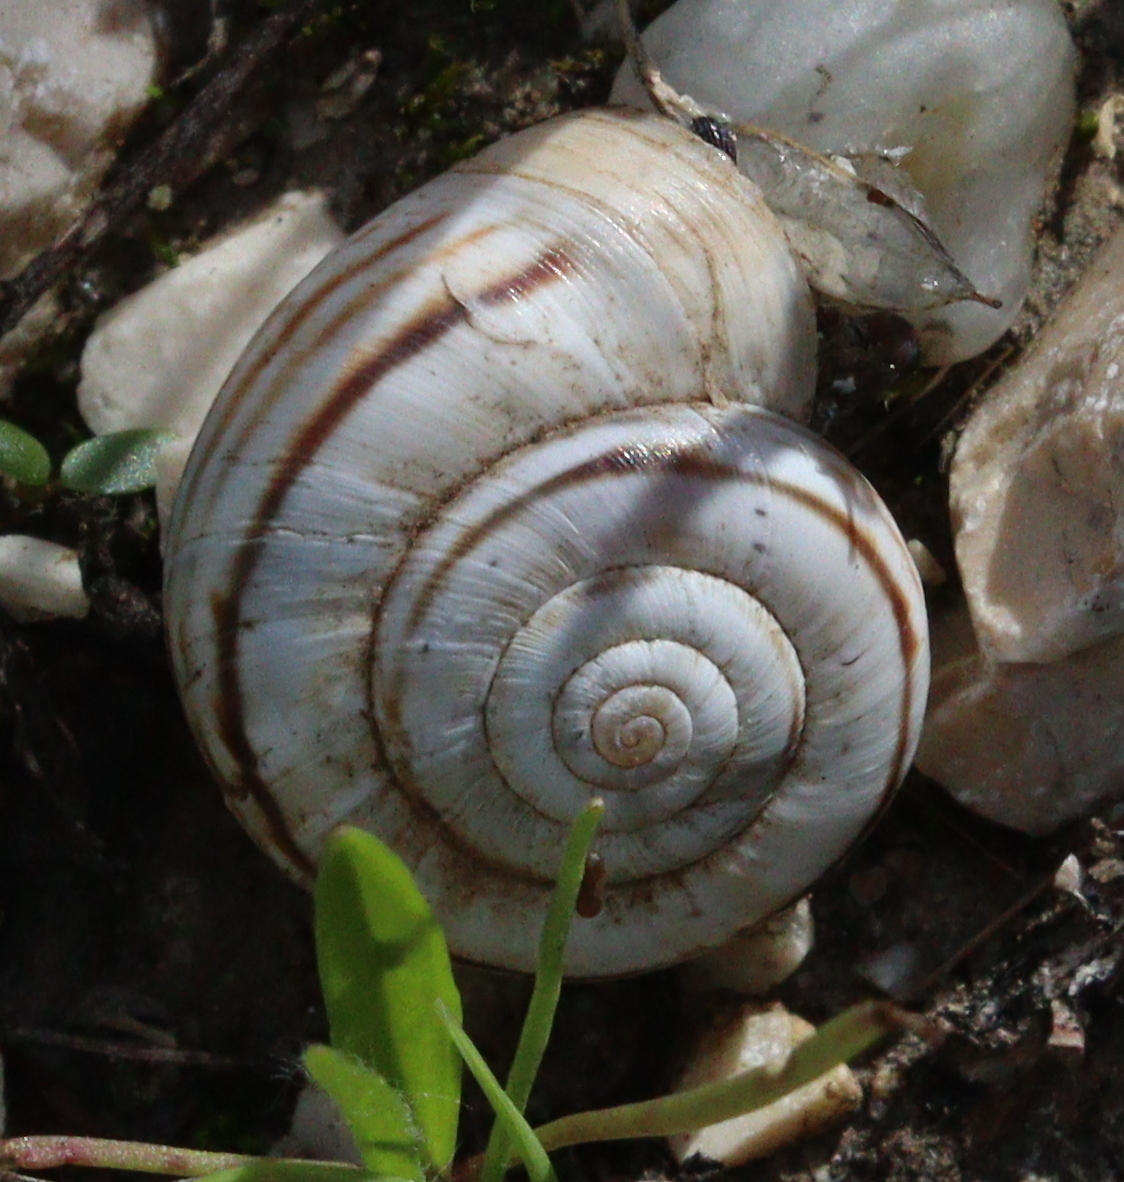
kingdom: Animalia
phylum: Mollusca
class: Gastropoda
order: Stylommatophora
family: Geomitridae
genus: Xerolenta
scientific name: Xerolenta obvia
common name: White heath snail
